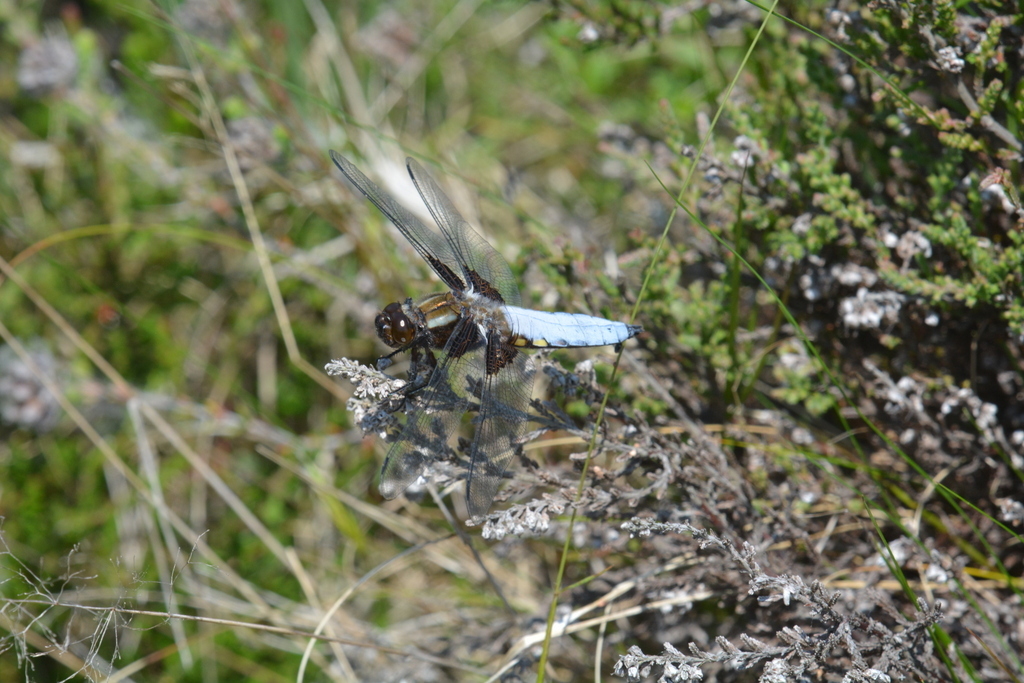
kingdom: Animalia
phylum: Arthropoda
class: Insecta
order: Odonata
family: Libellulidae
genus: Libellula
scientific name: Libellula depressa
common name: Broad-bodied chaser
